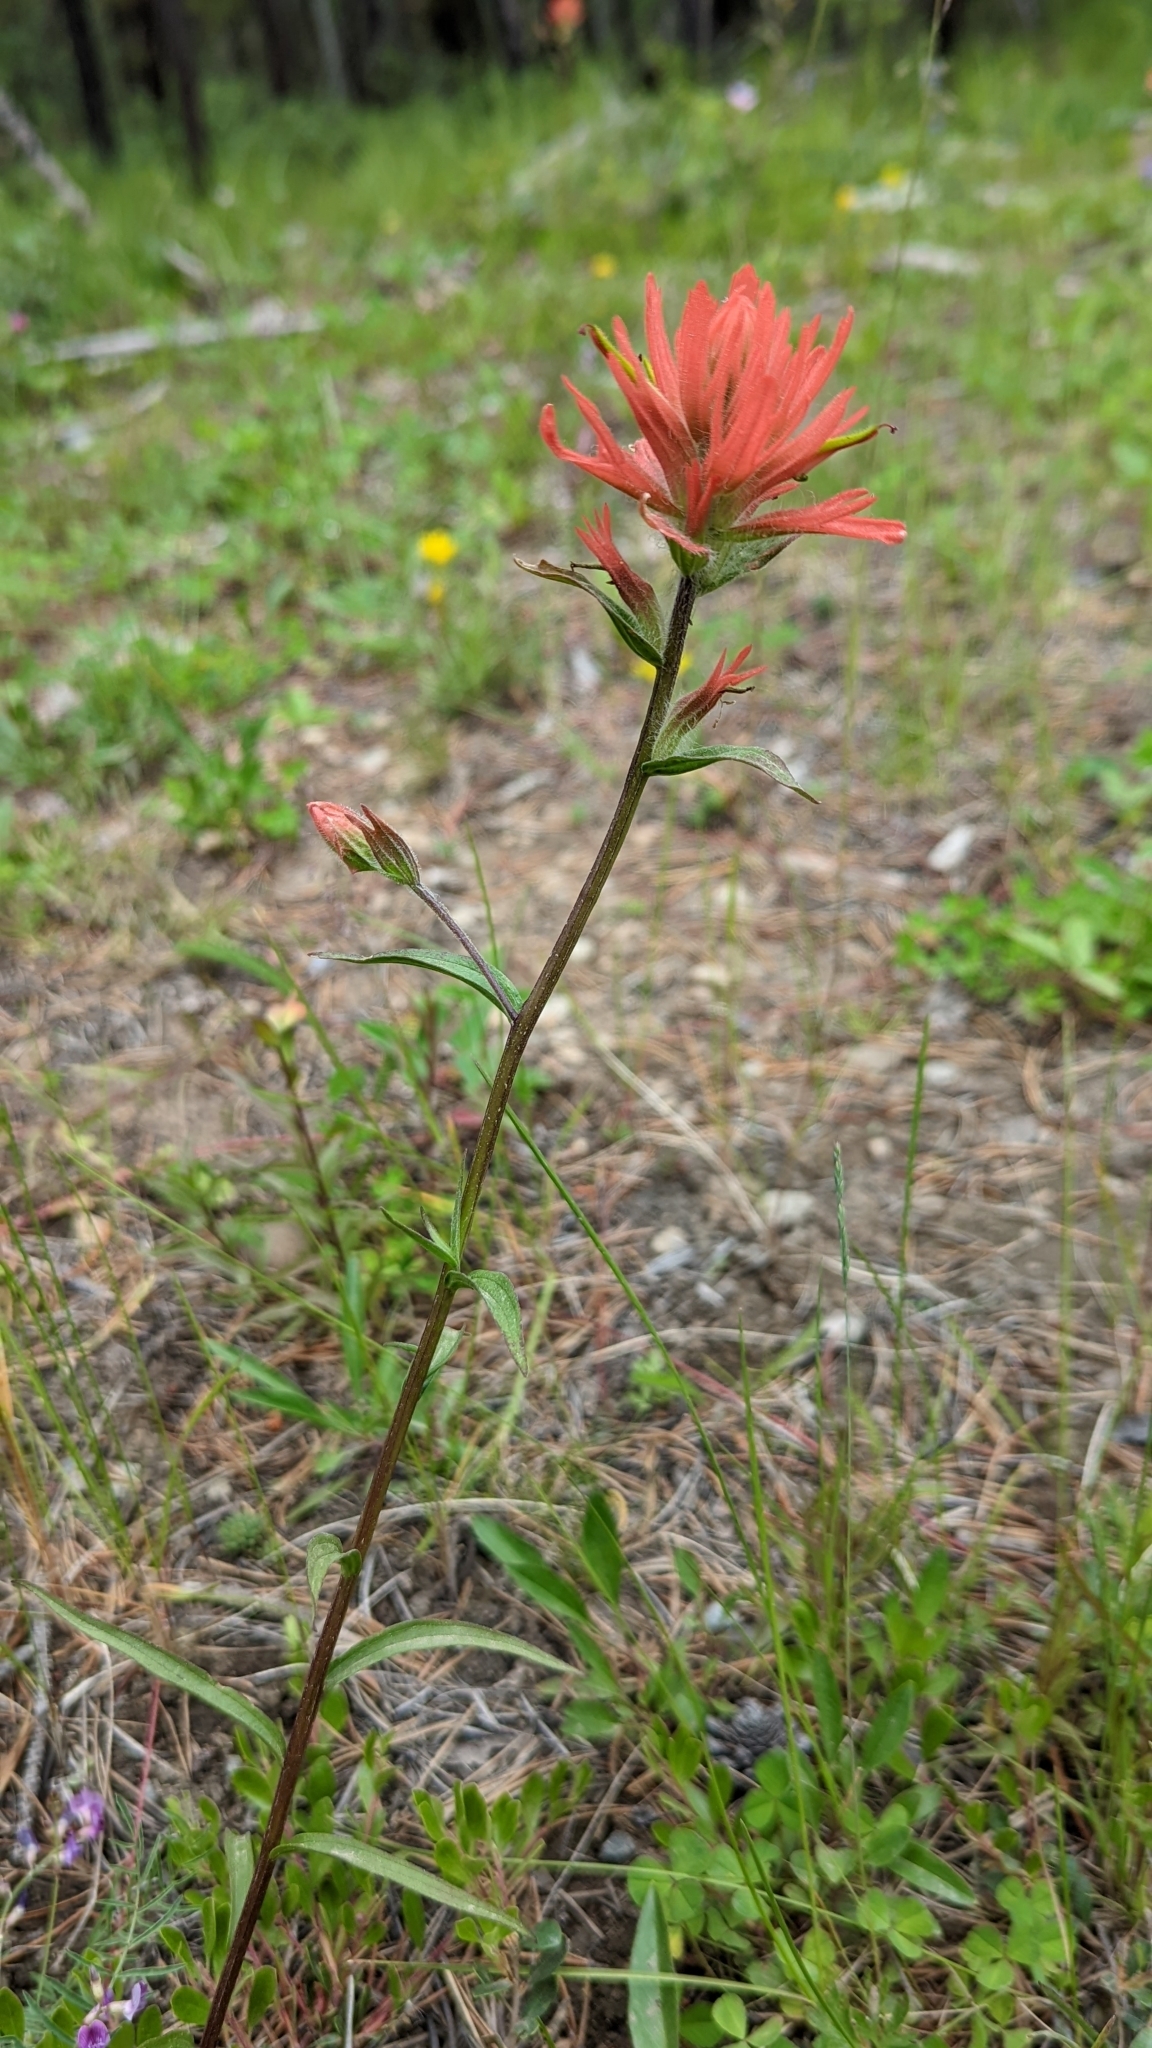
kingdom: Plantae
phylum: Tracheophyta
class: Magnoliopsida
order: Lamiales
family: Orobanchaceae
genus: Castilleja
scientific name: Castilleja miniata
